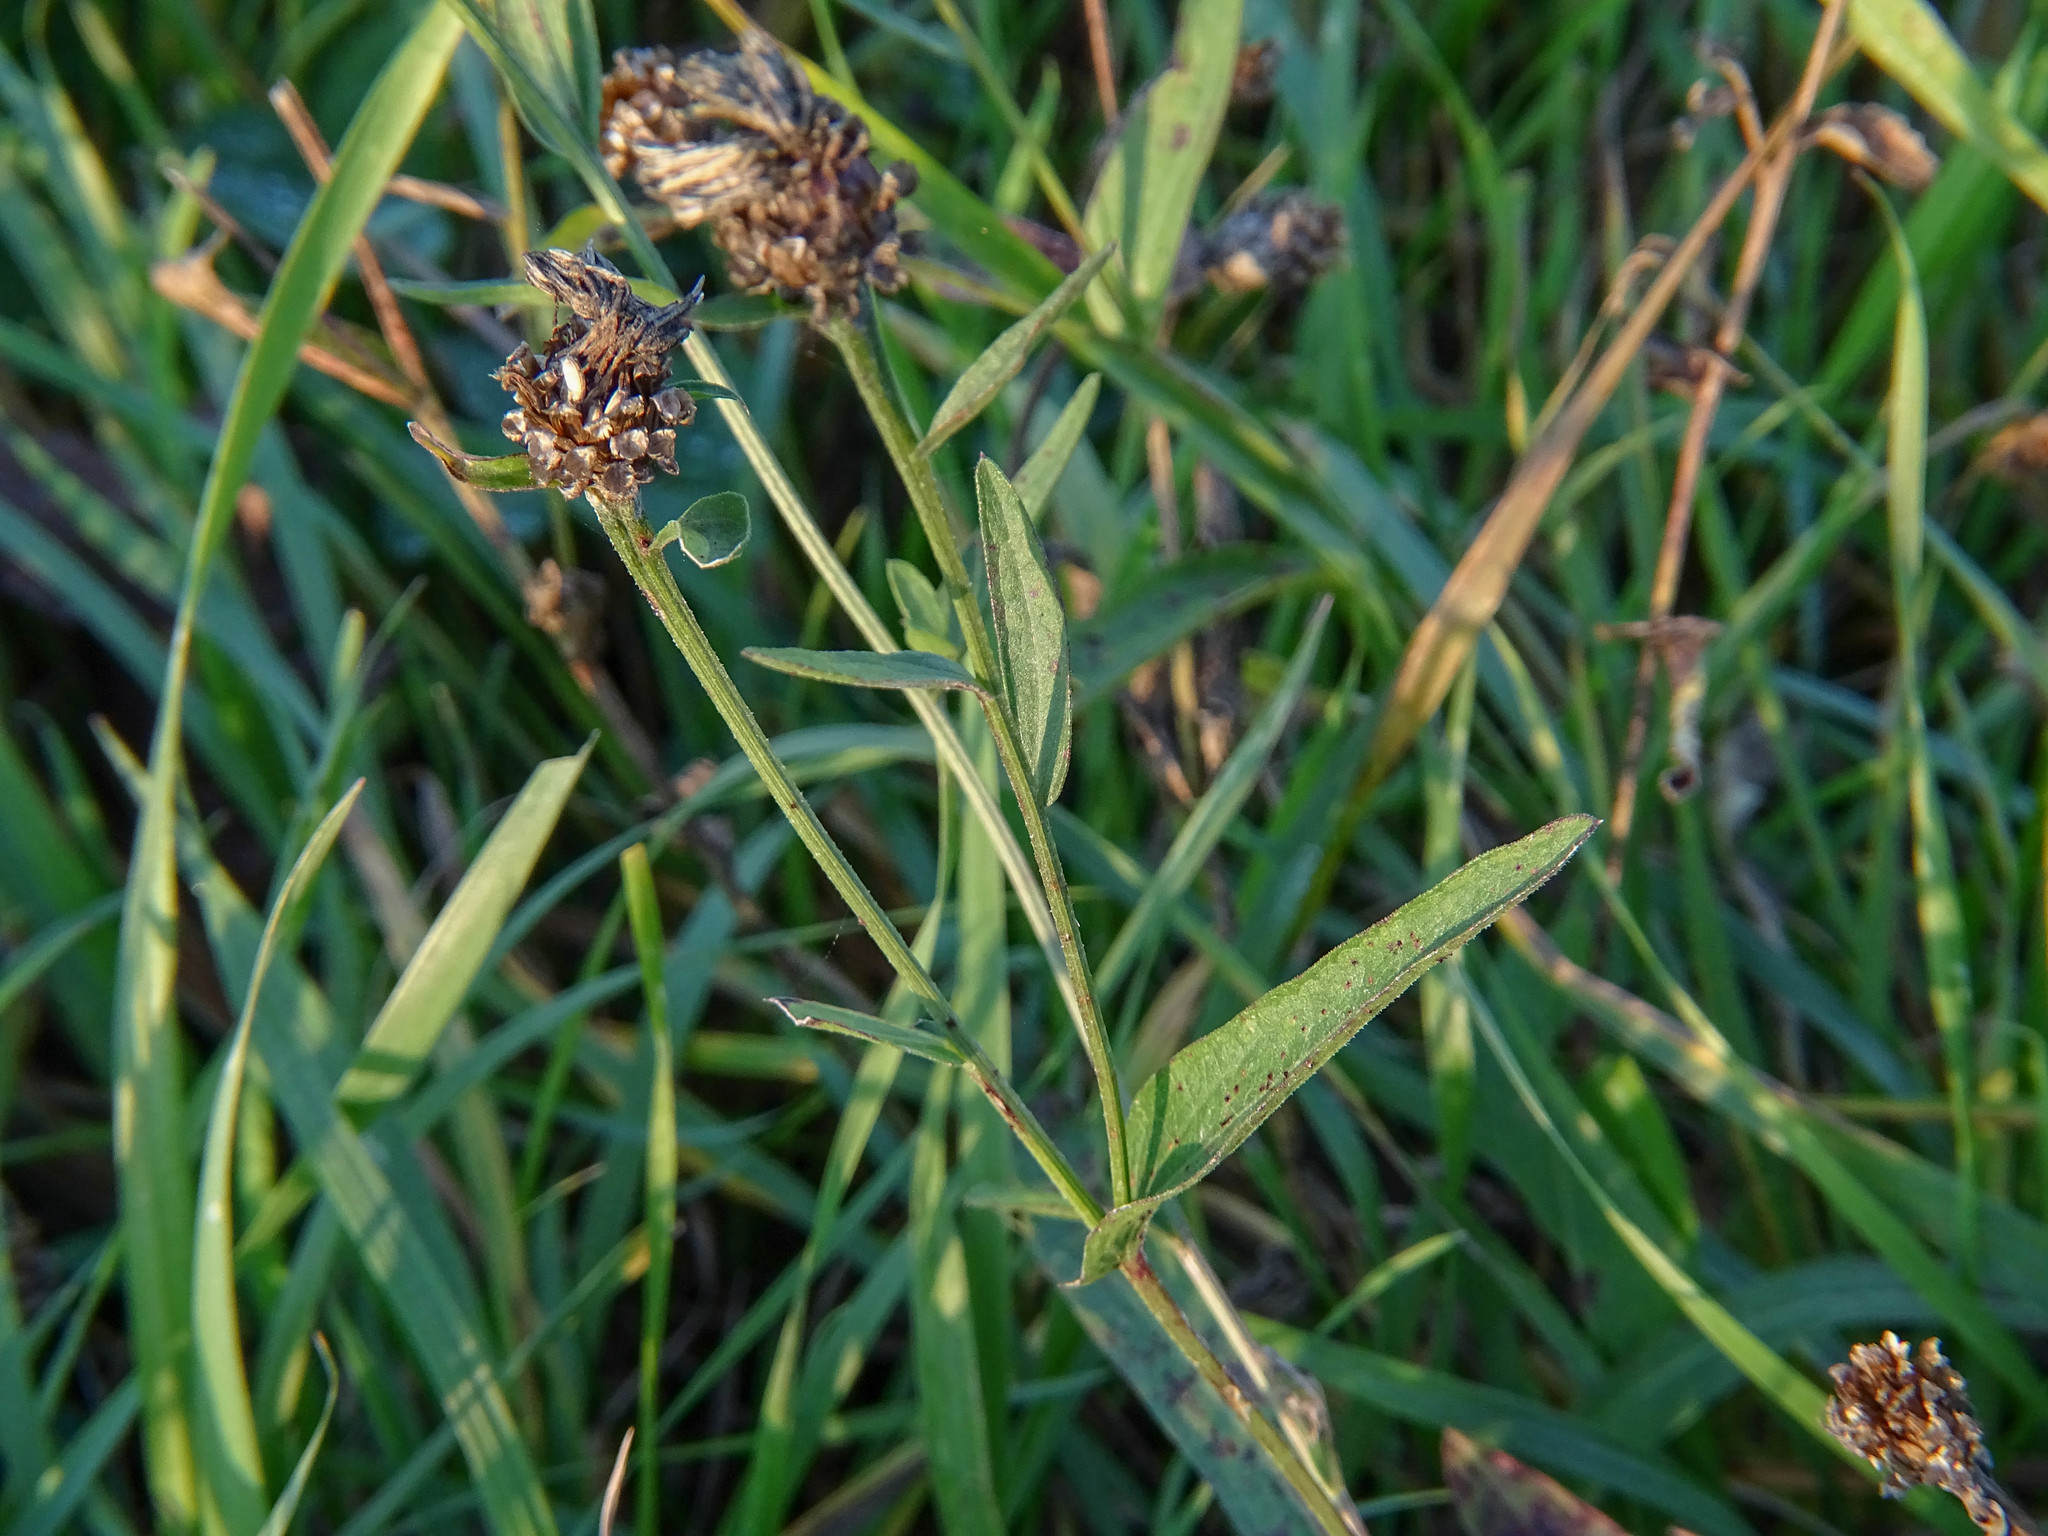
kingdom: Plantae
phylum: Tracheophyta
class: Magnoliopsida
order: Asterales
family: Asteraceae
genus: Centaurea
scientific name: Centaurea jacea
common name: Brown knapweed
